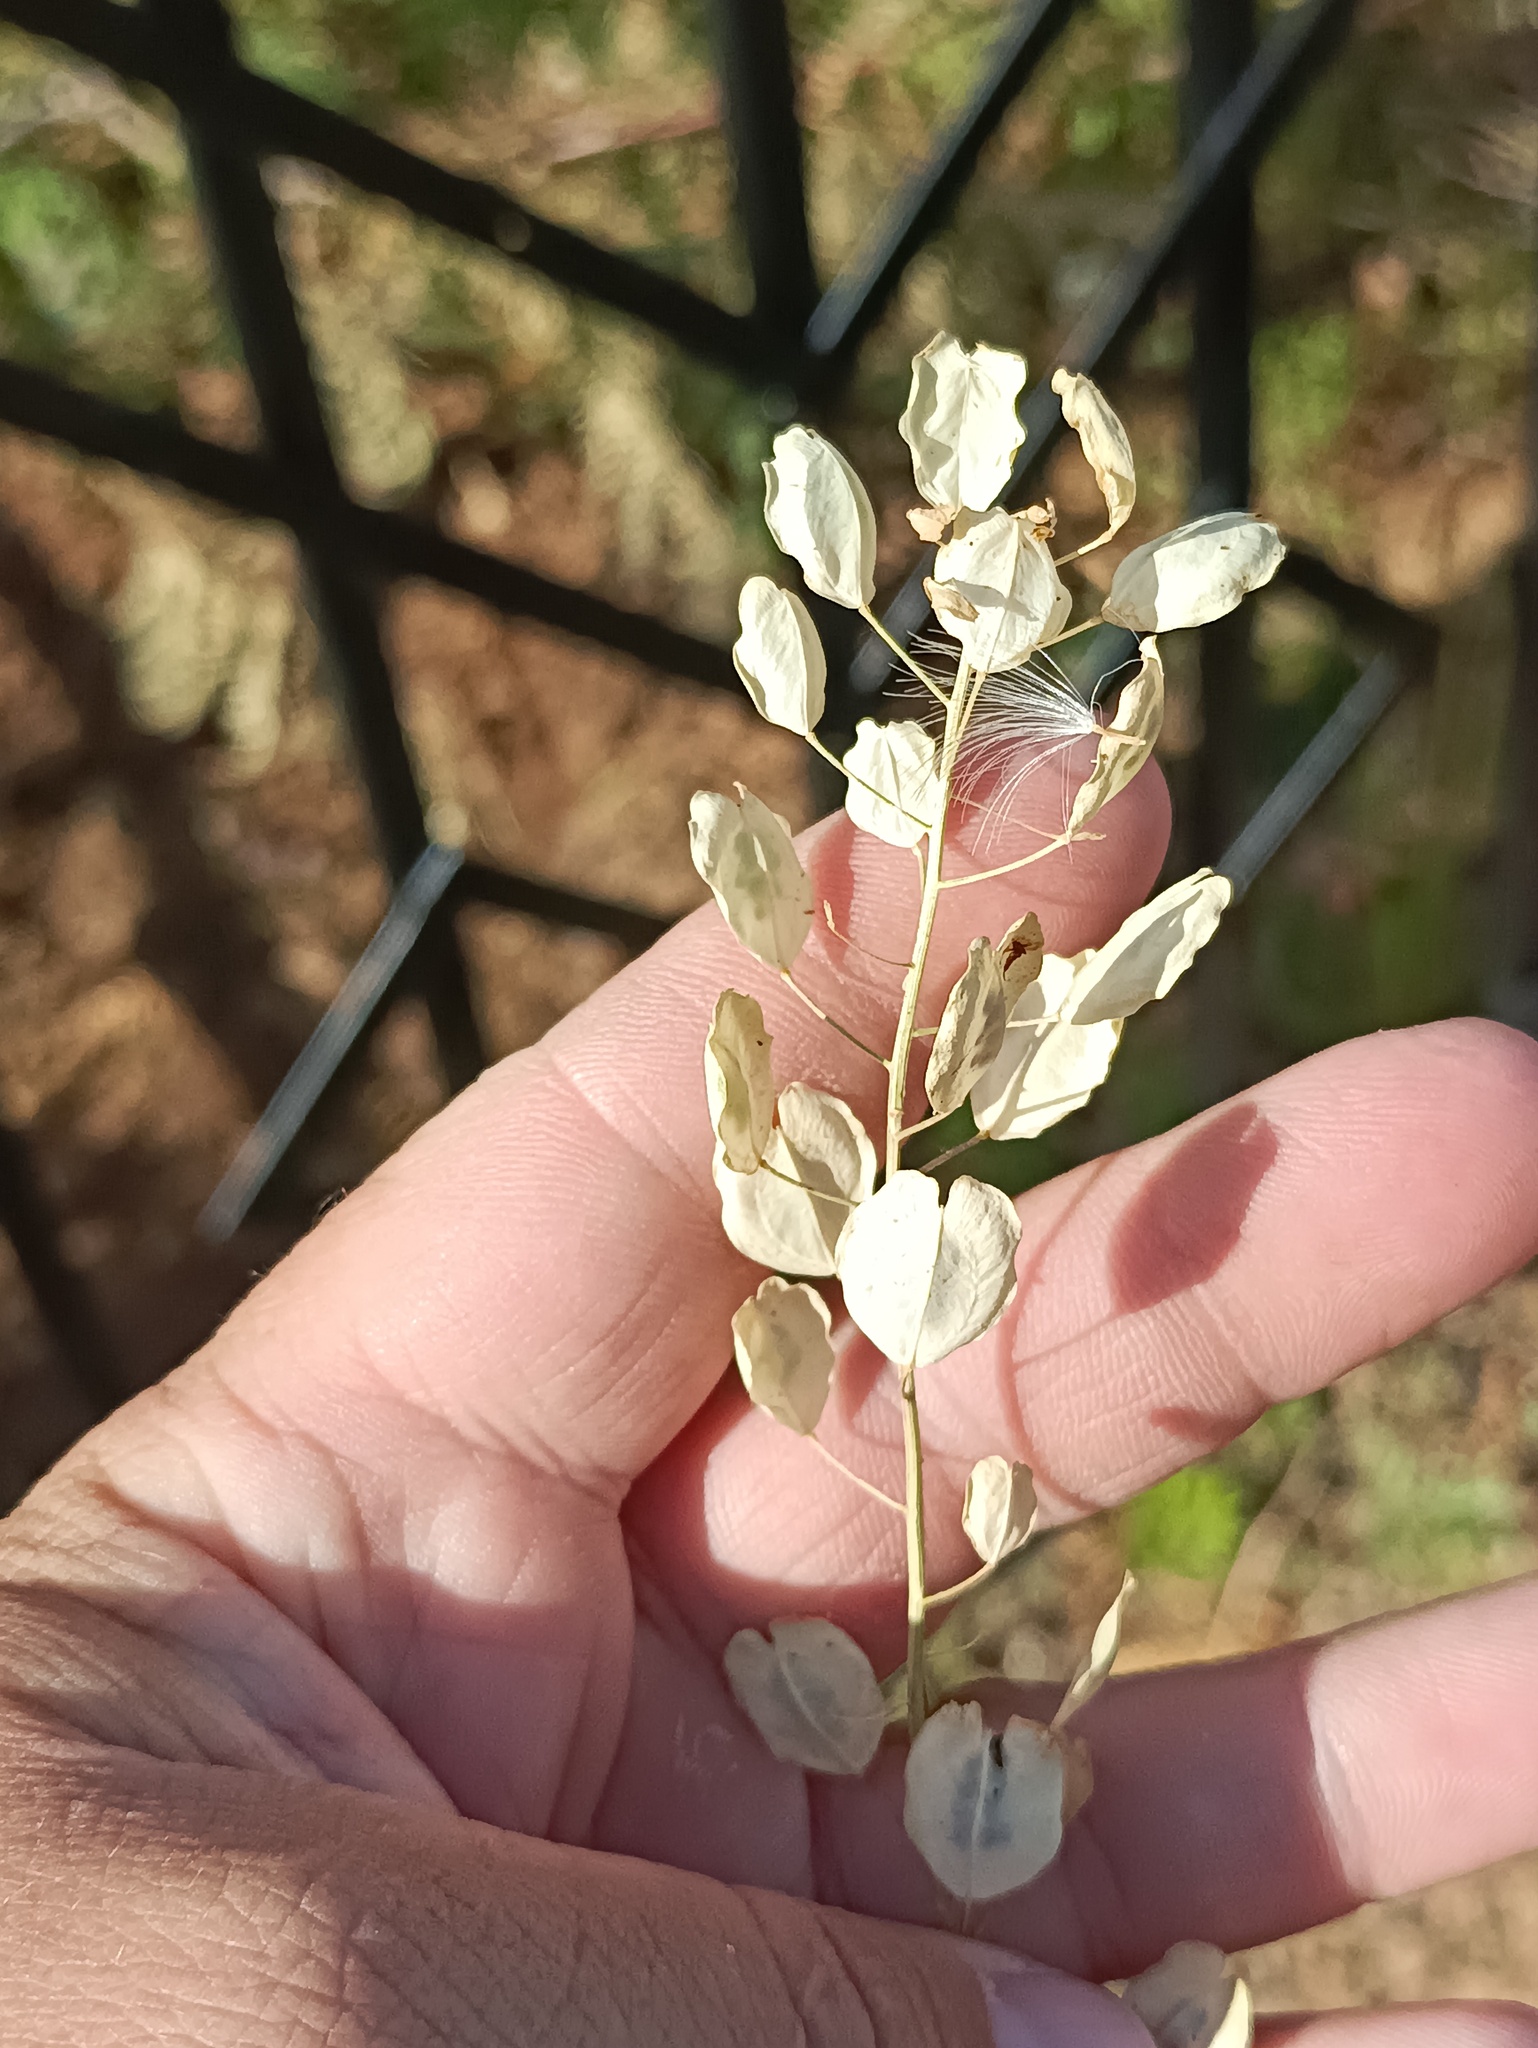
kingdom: Plantae
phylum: Tracheophyta
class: Magnoliopsida
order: Brassicales
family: Brassicaceae
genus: Thlaspi
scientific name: Thlaspi arvense
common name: Field pennycress
